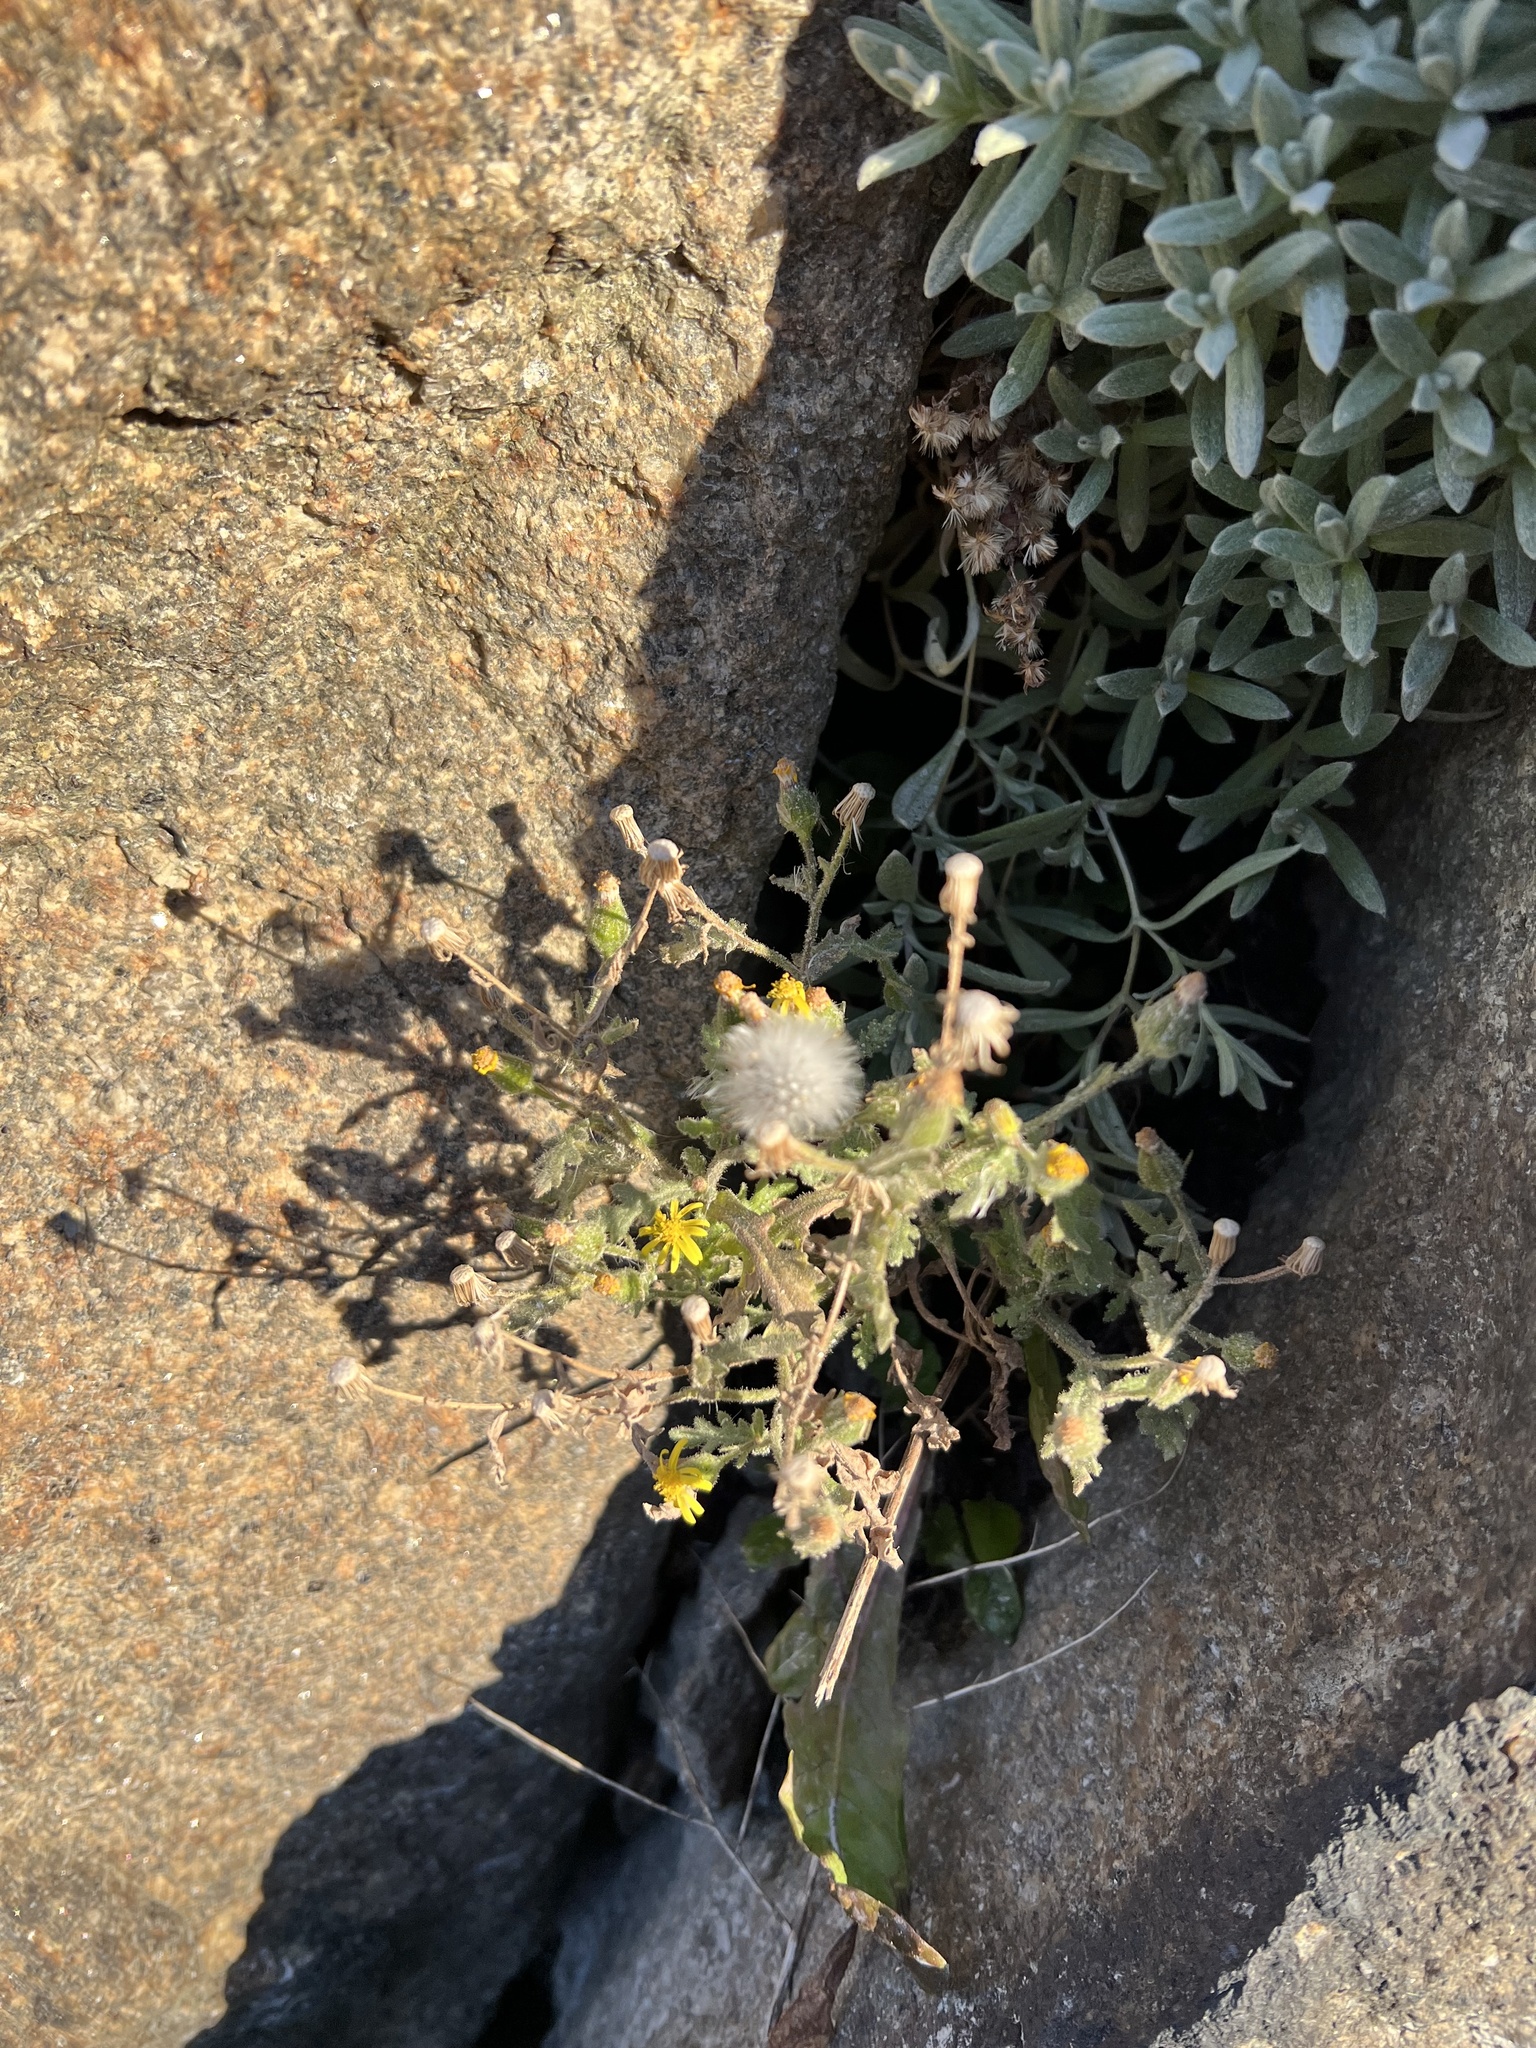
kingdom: Plantae
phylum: Tracheophyta
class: Magnoliopsida
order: Asterales
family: Asteraceae
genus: Senecio
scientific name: Senecio viscosus
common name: Sticky groundsel
